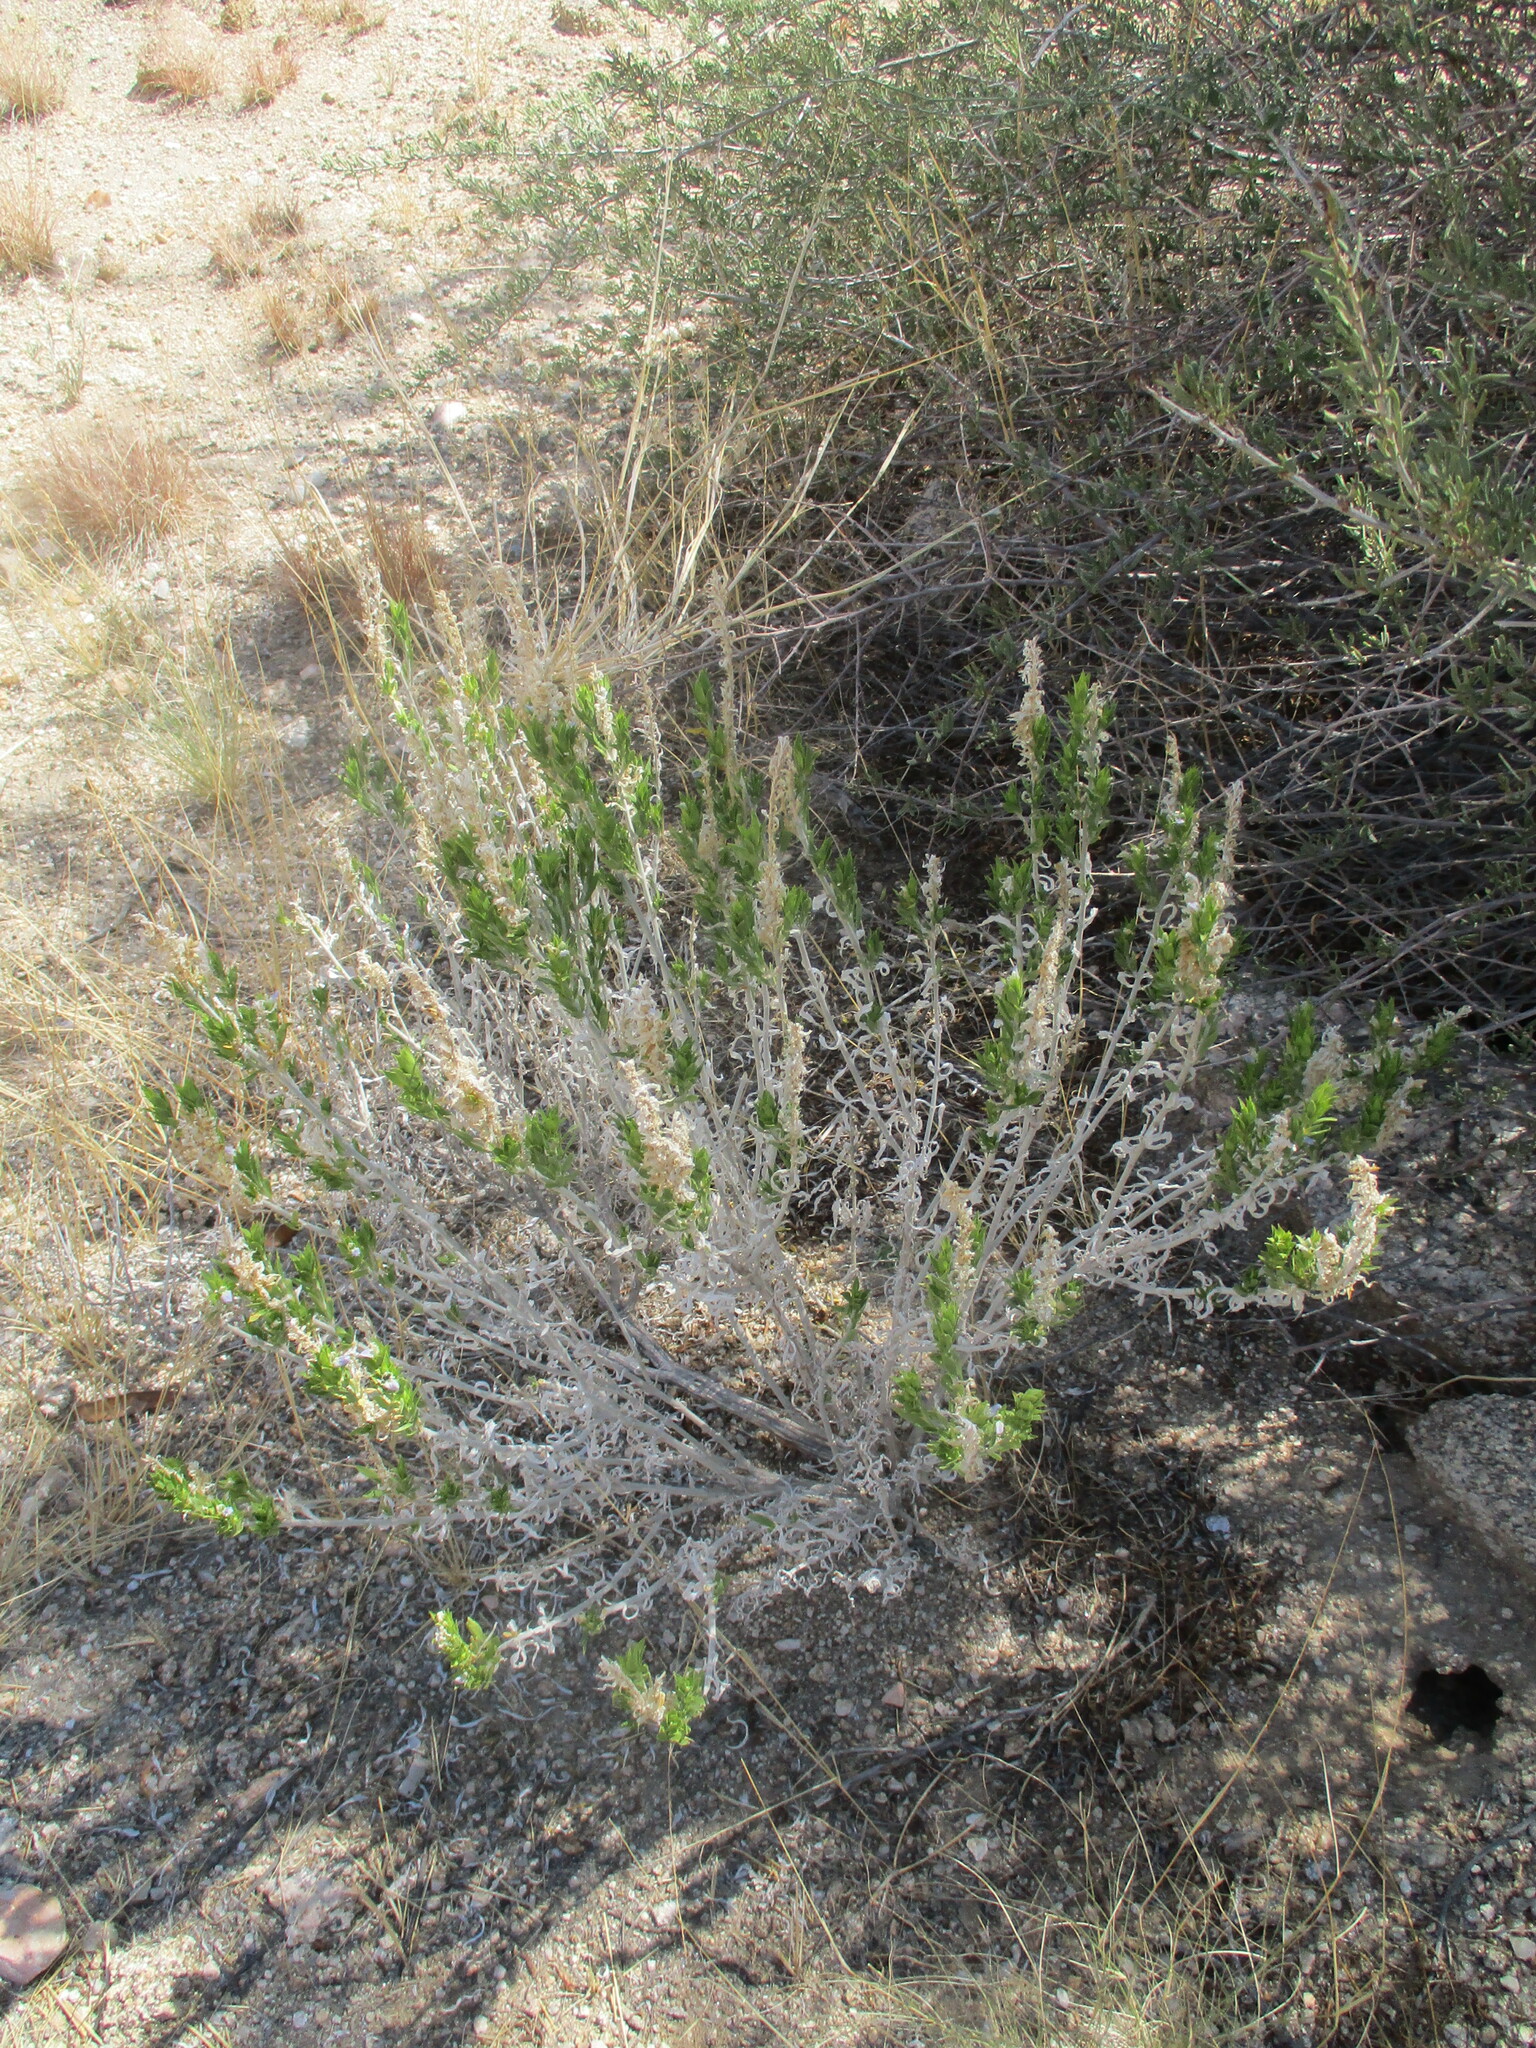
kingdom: Plantae
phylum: Tracheophyta
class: Magnoliopsida
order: Lamiales
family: Acanthaceae
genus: Pogonospermum
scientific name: Pogonospermum
